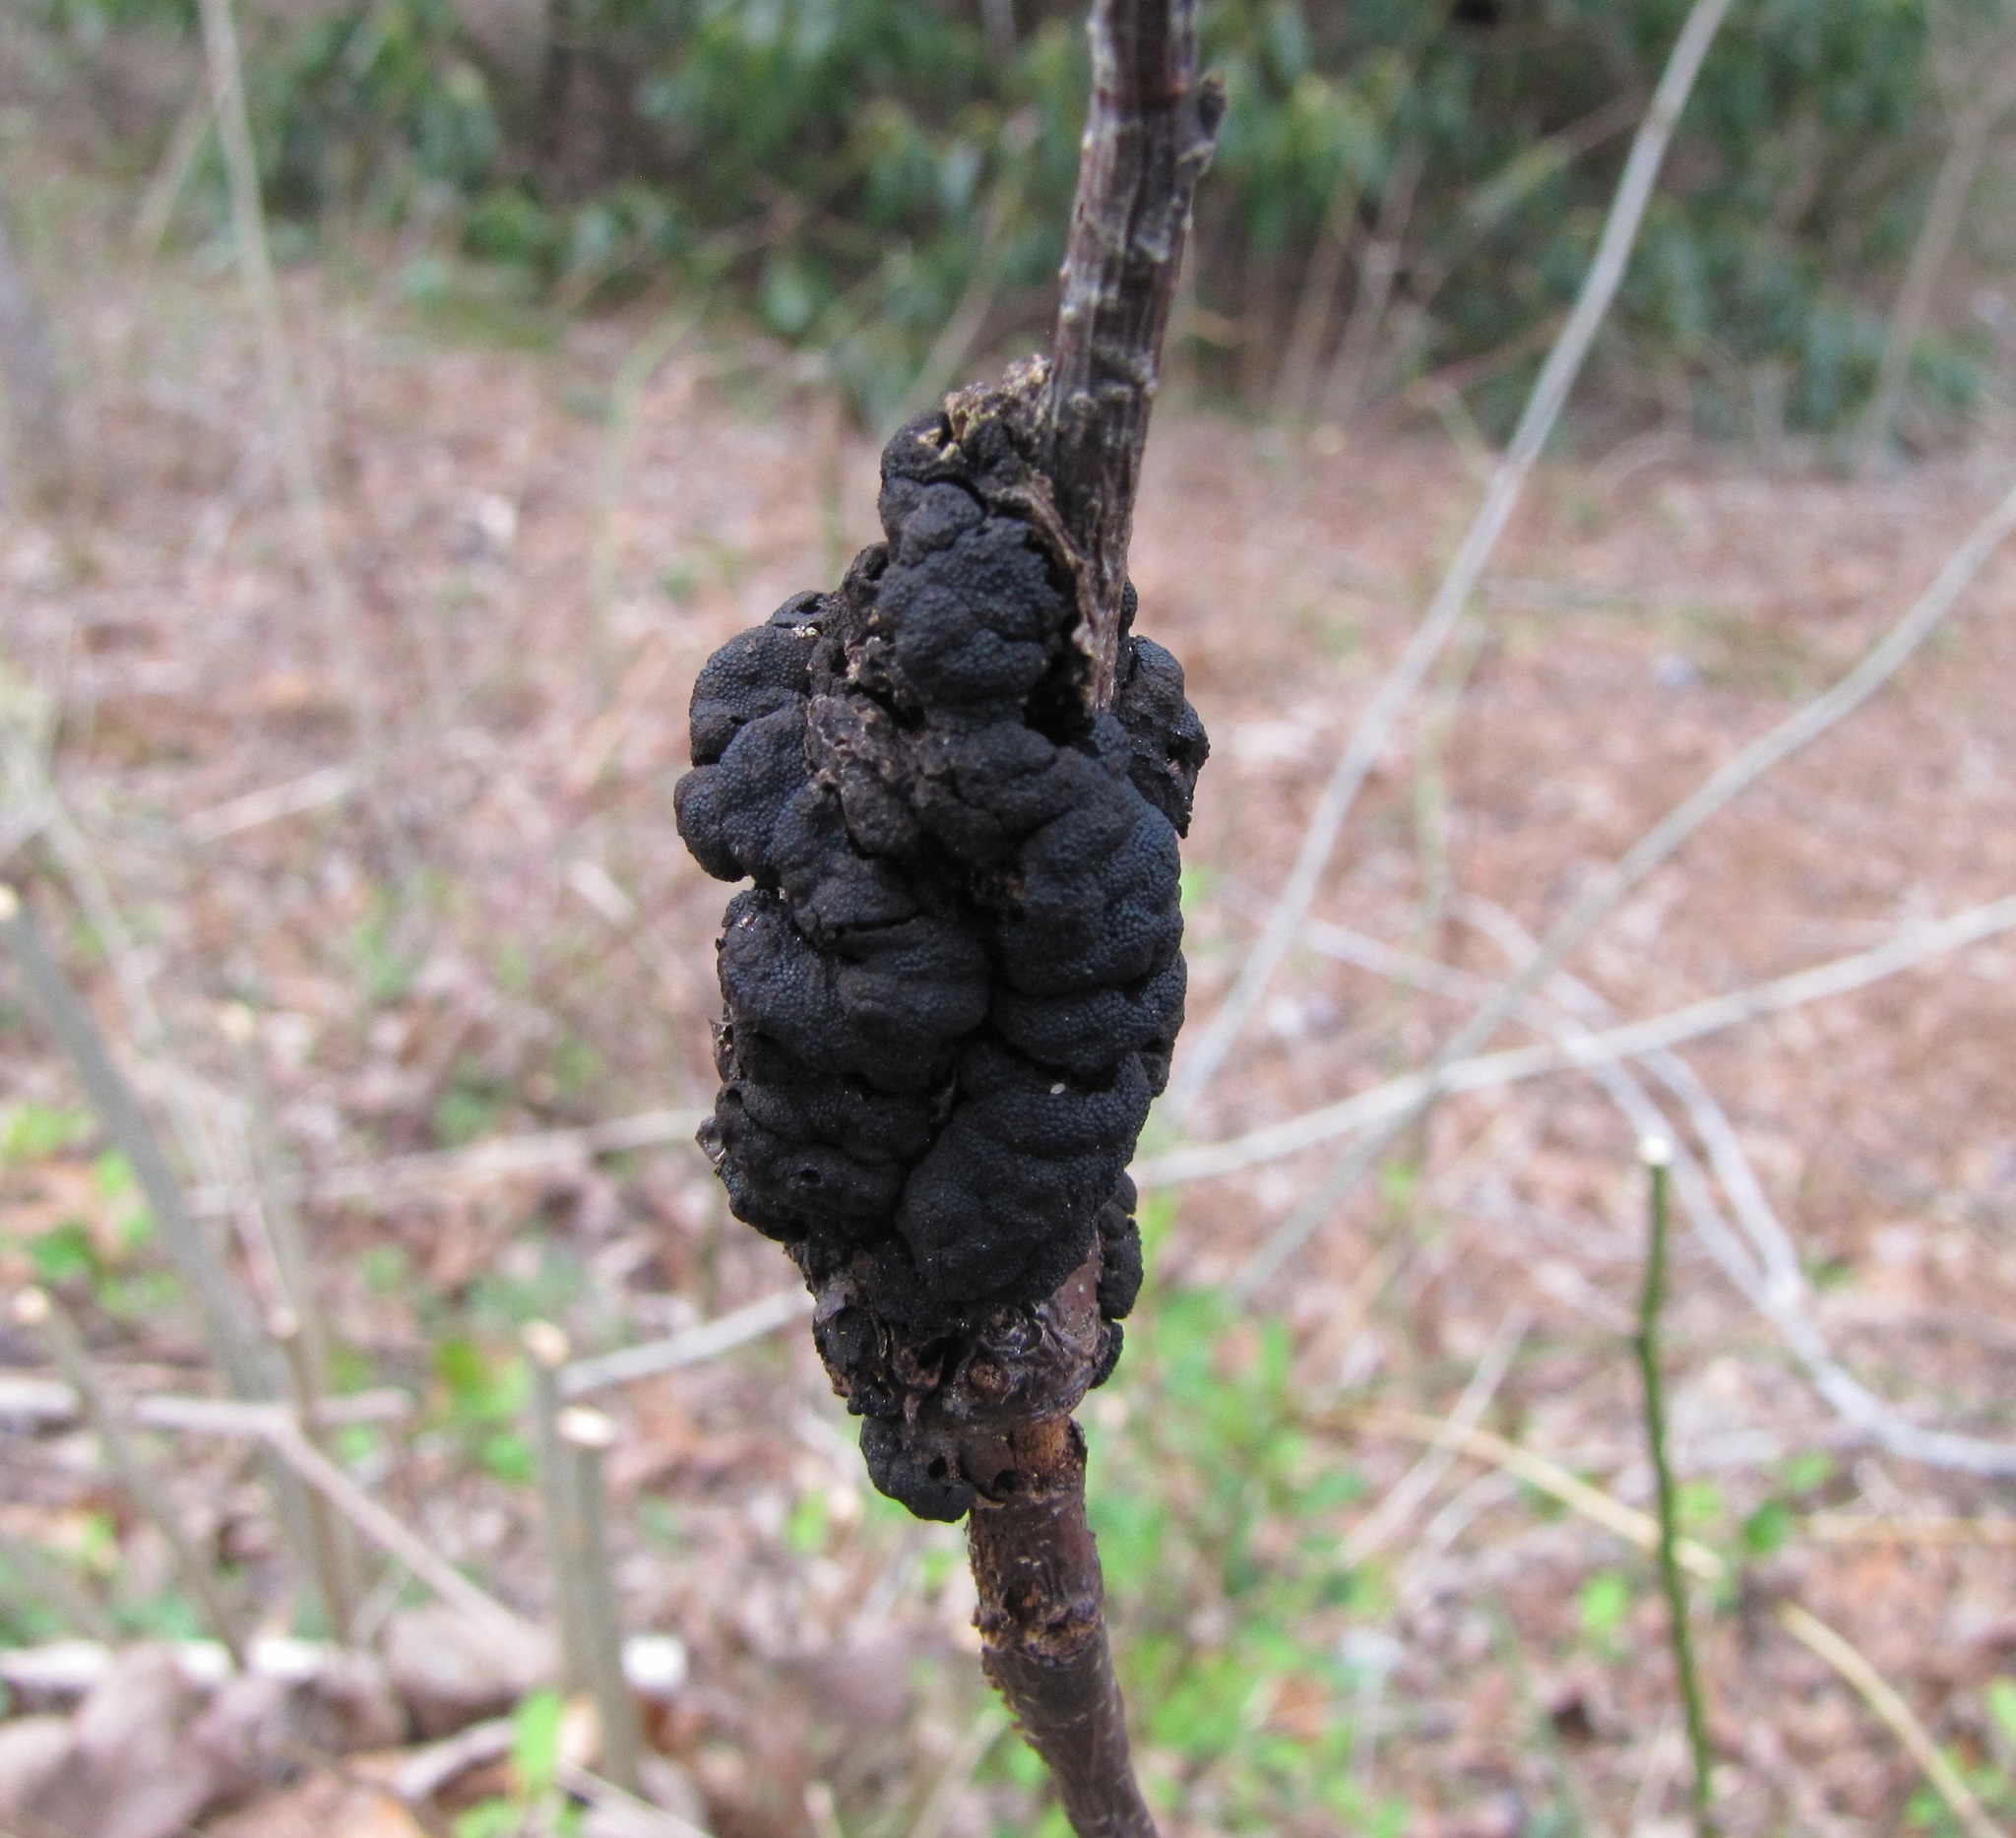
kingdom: Fungi
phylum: Ascomycota
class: Dothideomycetes
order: Venturiales
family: Venturiaceae
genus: Apiosporina
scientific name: Apiosporina morbosa
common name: Black knot
